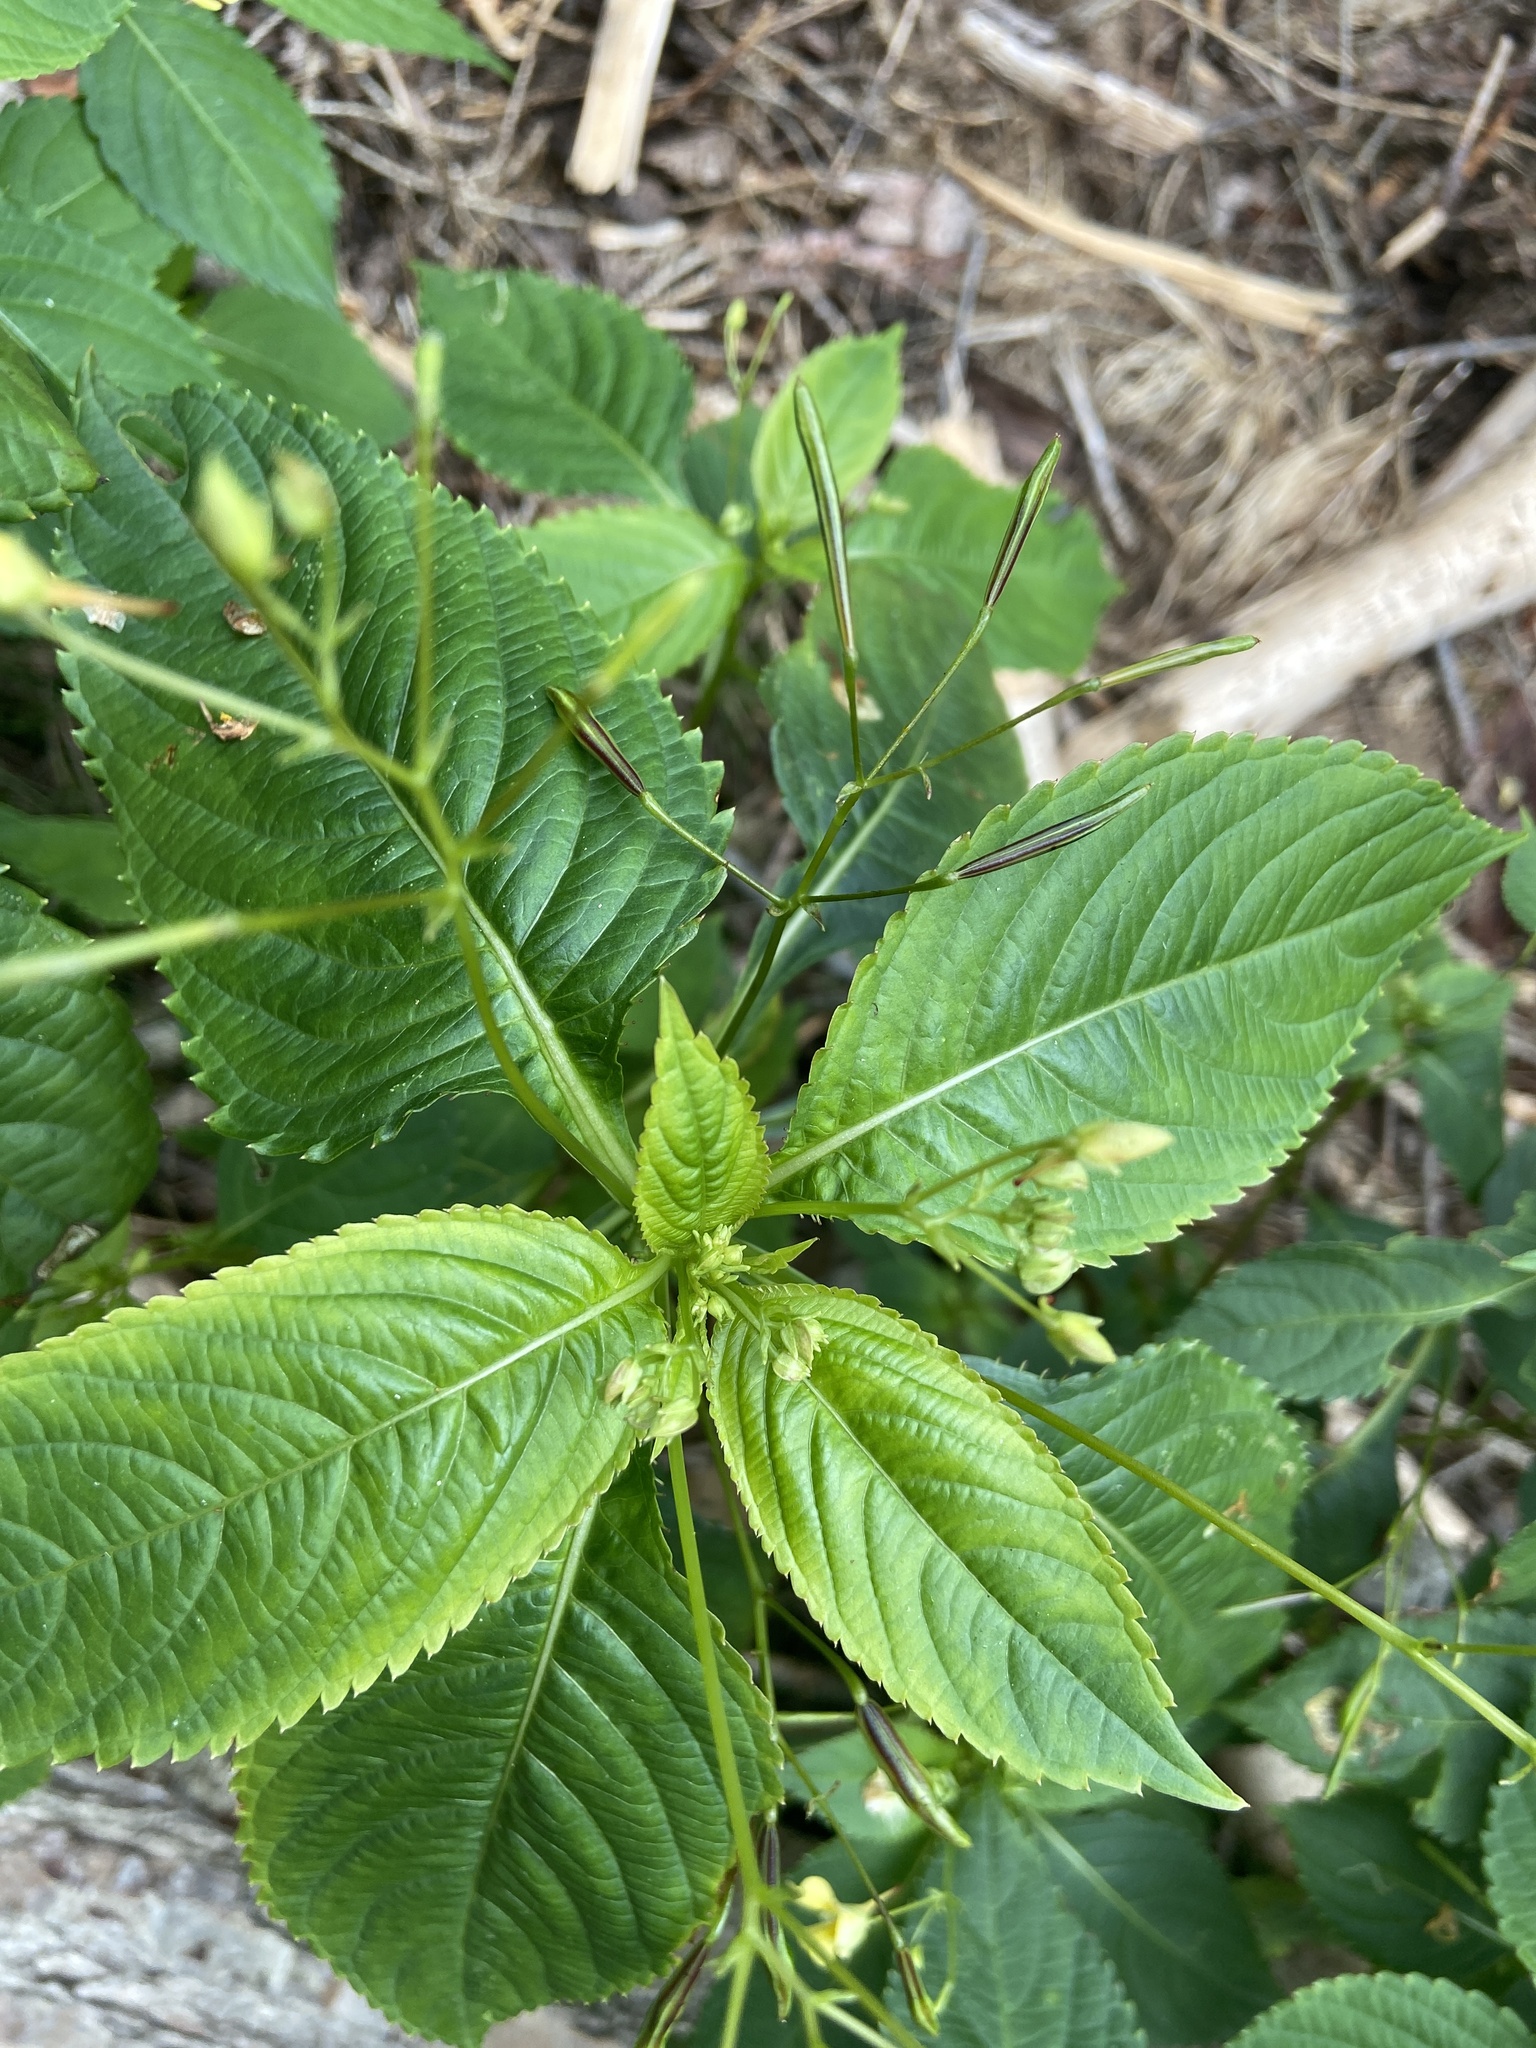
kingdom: Plantae
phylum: Tracheophyta
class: Magnoliopsida
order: Ericales
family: Balsaminaceae
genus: Impatiens
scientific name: Impatiens parviflora
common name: Small balsam
